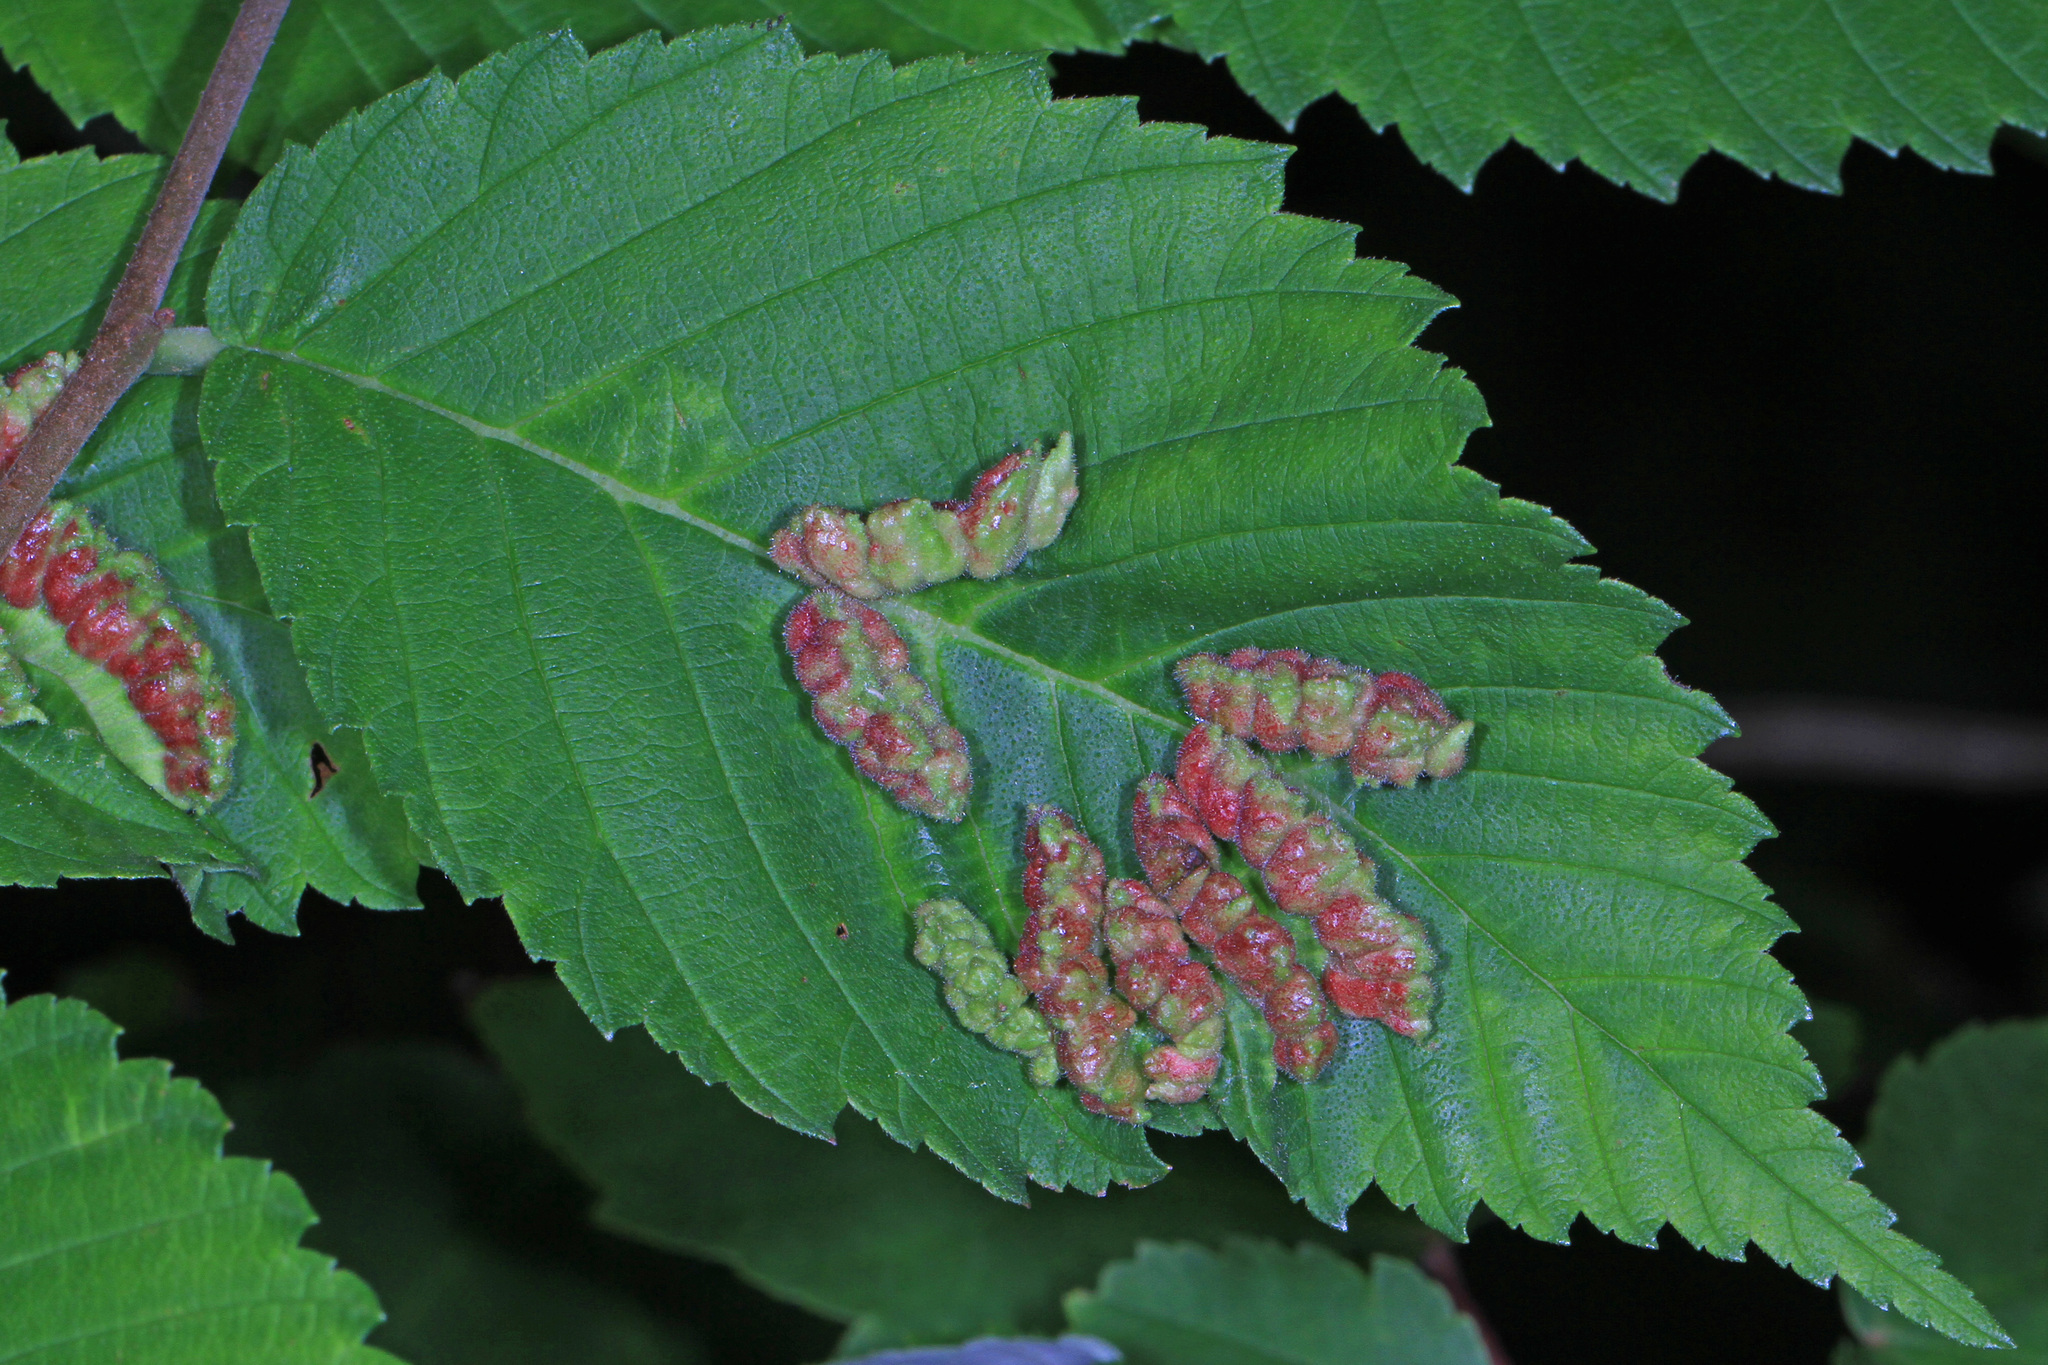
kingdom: Animalia
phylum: Arthropoda
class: Insecta
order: Hemiptera
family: Aphididae
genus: Colopha
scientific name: Colopha ulmicola
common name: Elm cockscombgall aphid
